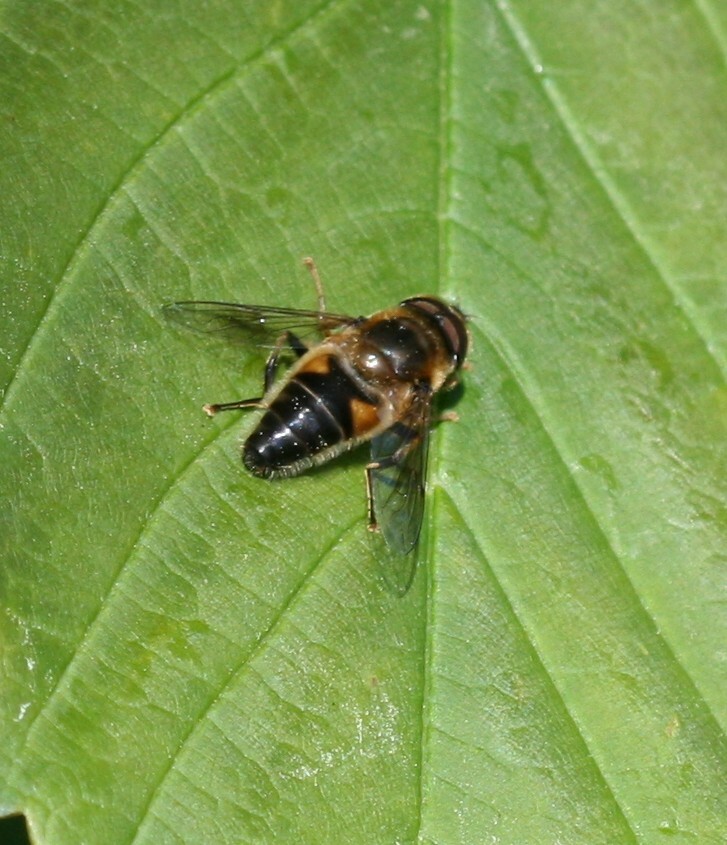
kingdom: Animalia
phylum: Arthropoda
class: Insecta
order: Diptera
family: Syrphidae
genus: Eristalis
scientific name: Eristalis pertinax
